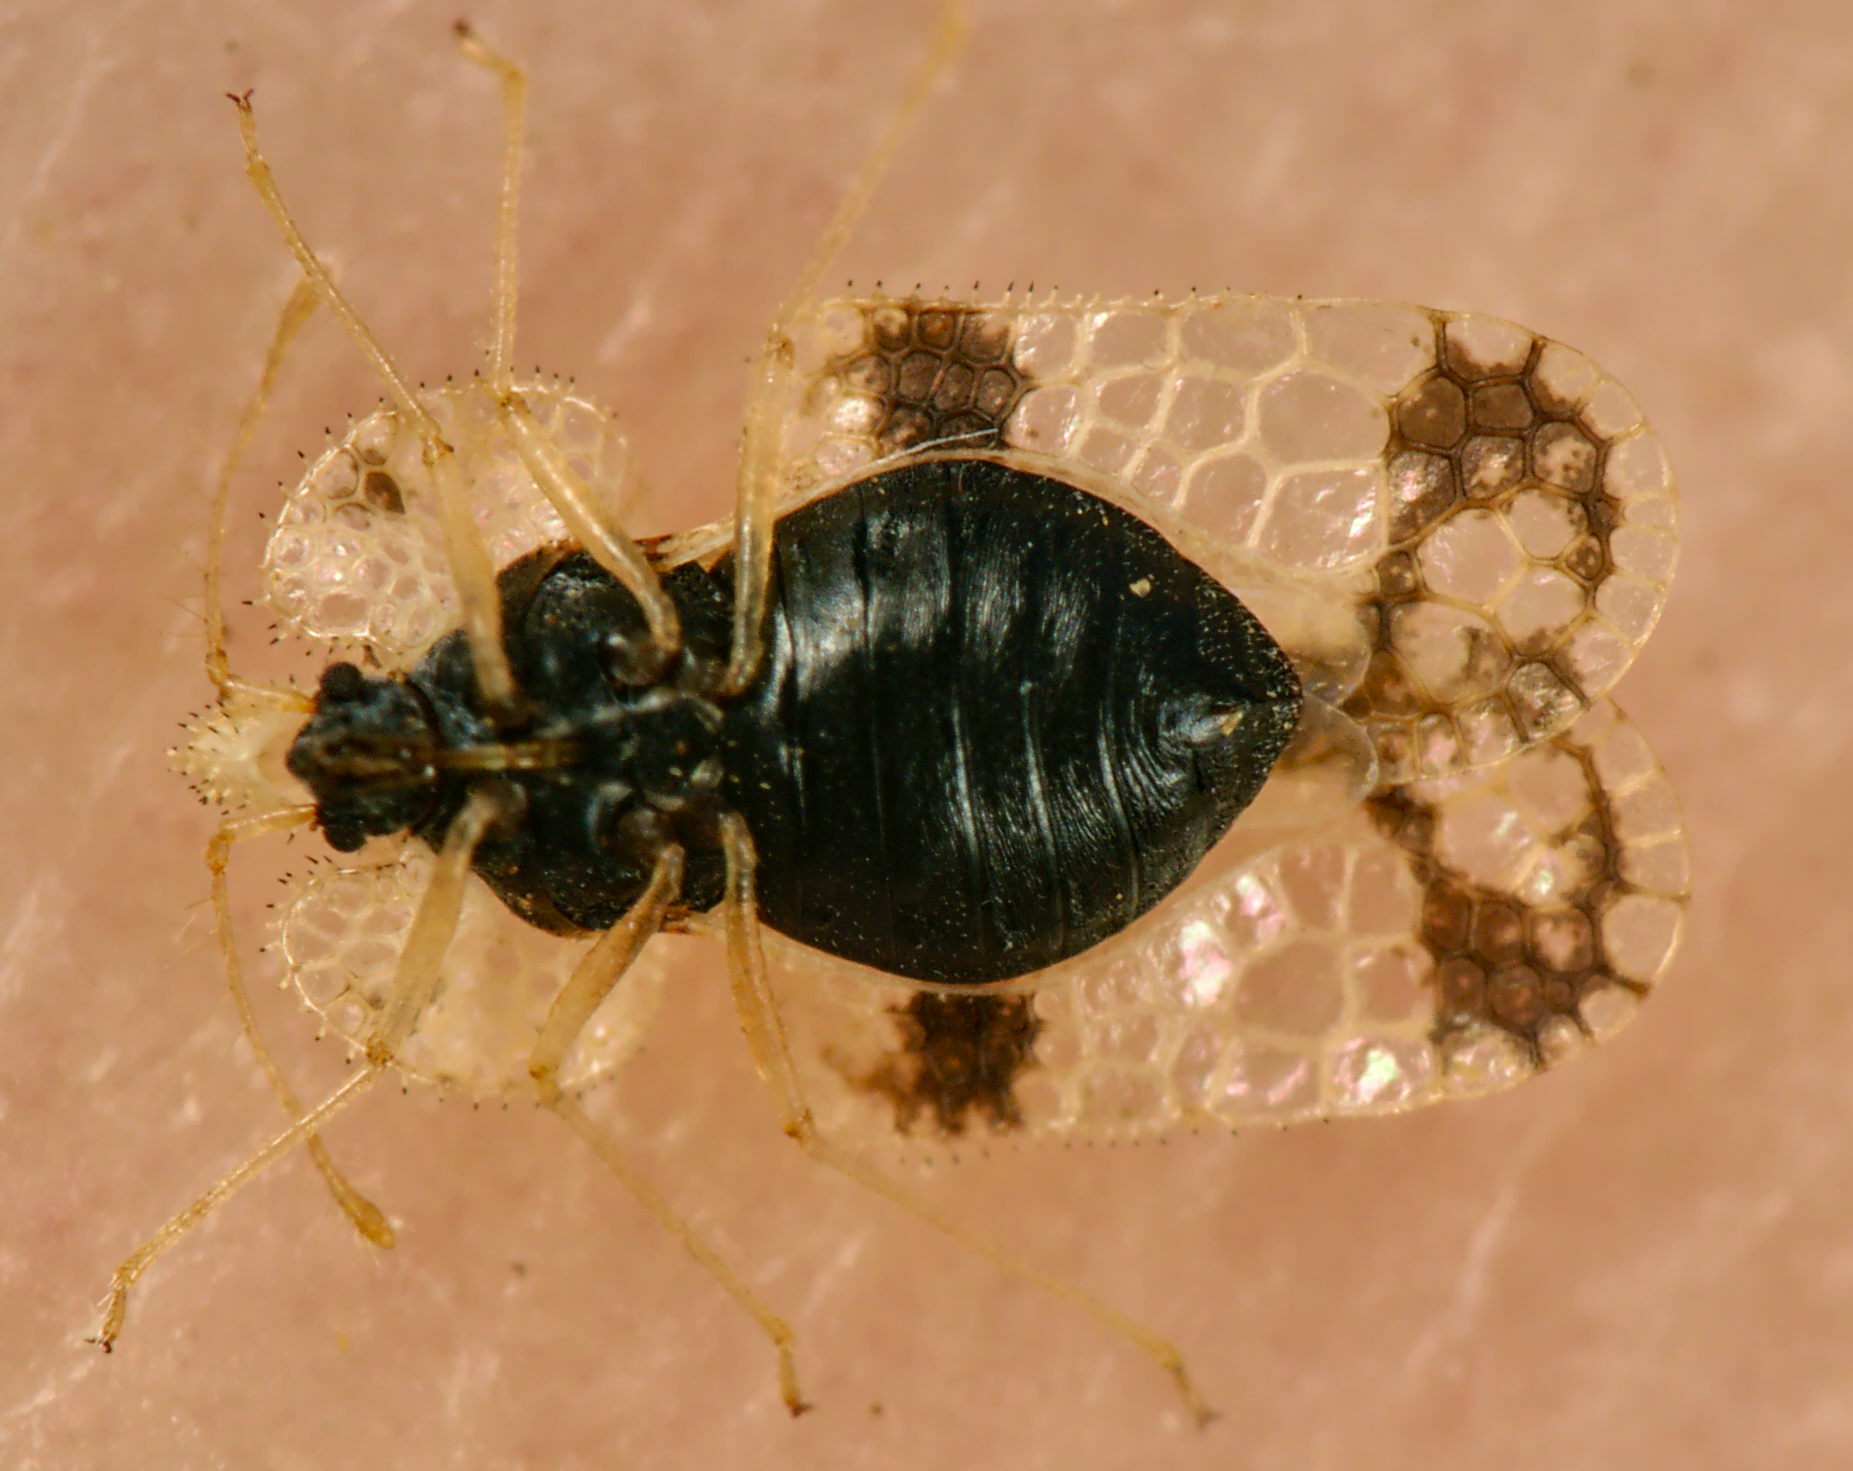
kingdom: Animalia
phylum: Arthropoda
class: Insecta
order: Hemiptera
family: Tingidae
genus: Corythucha
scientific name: Corythucha arcuata
